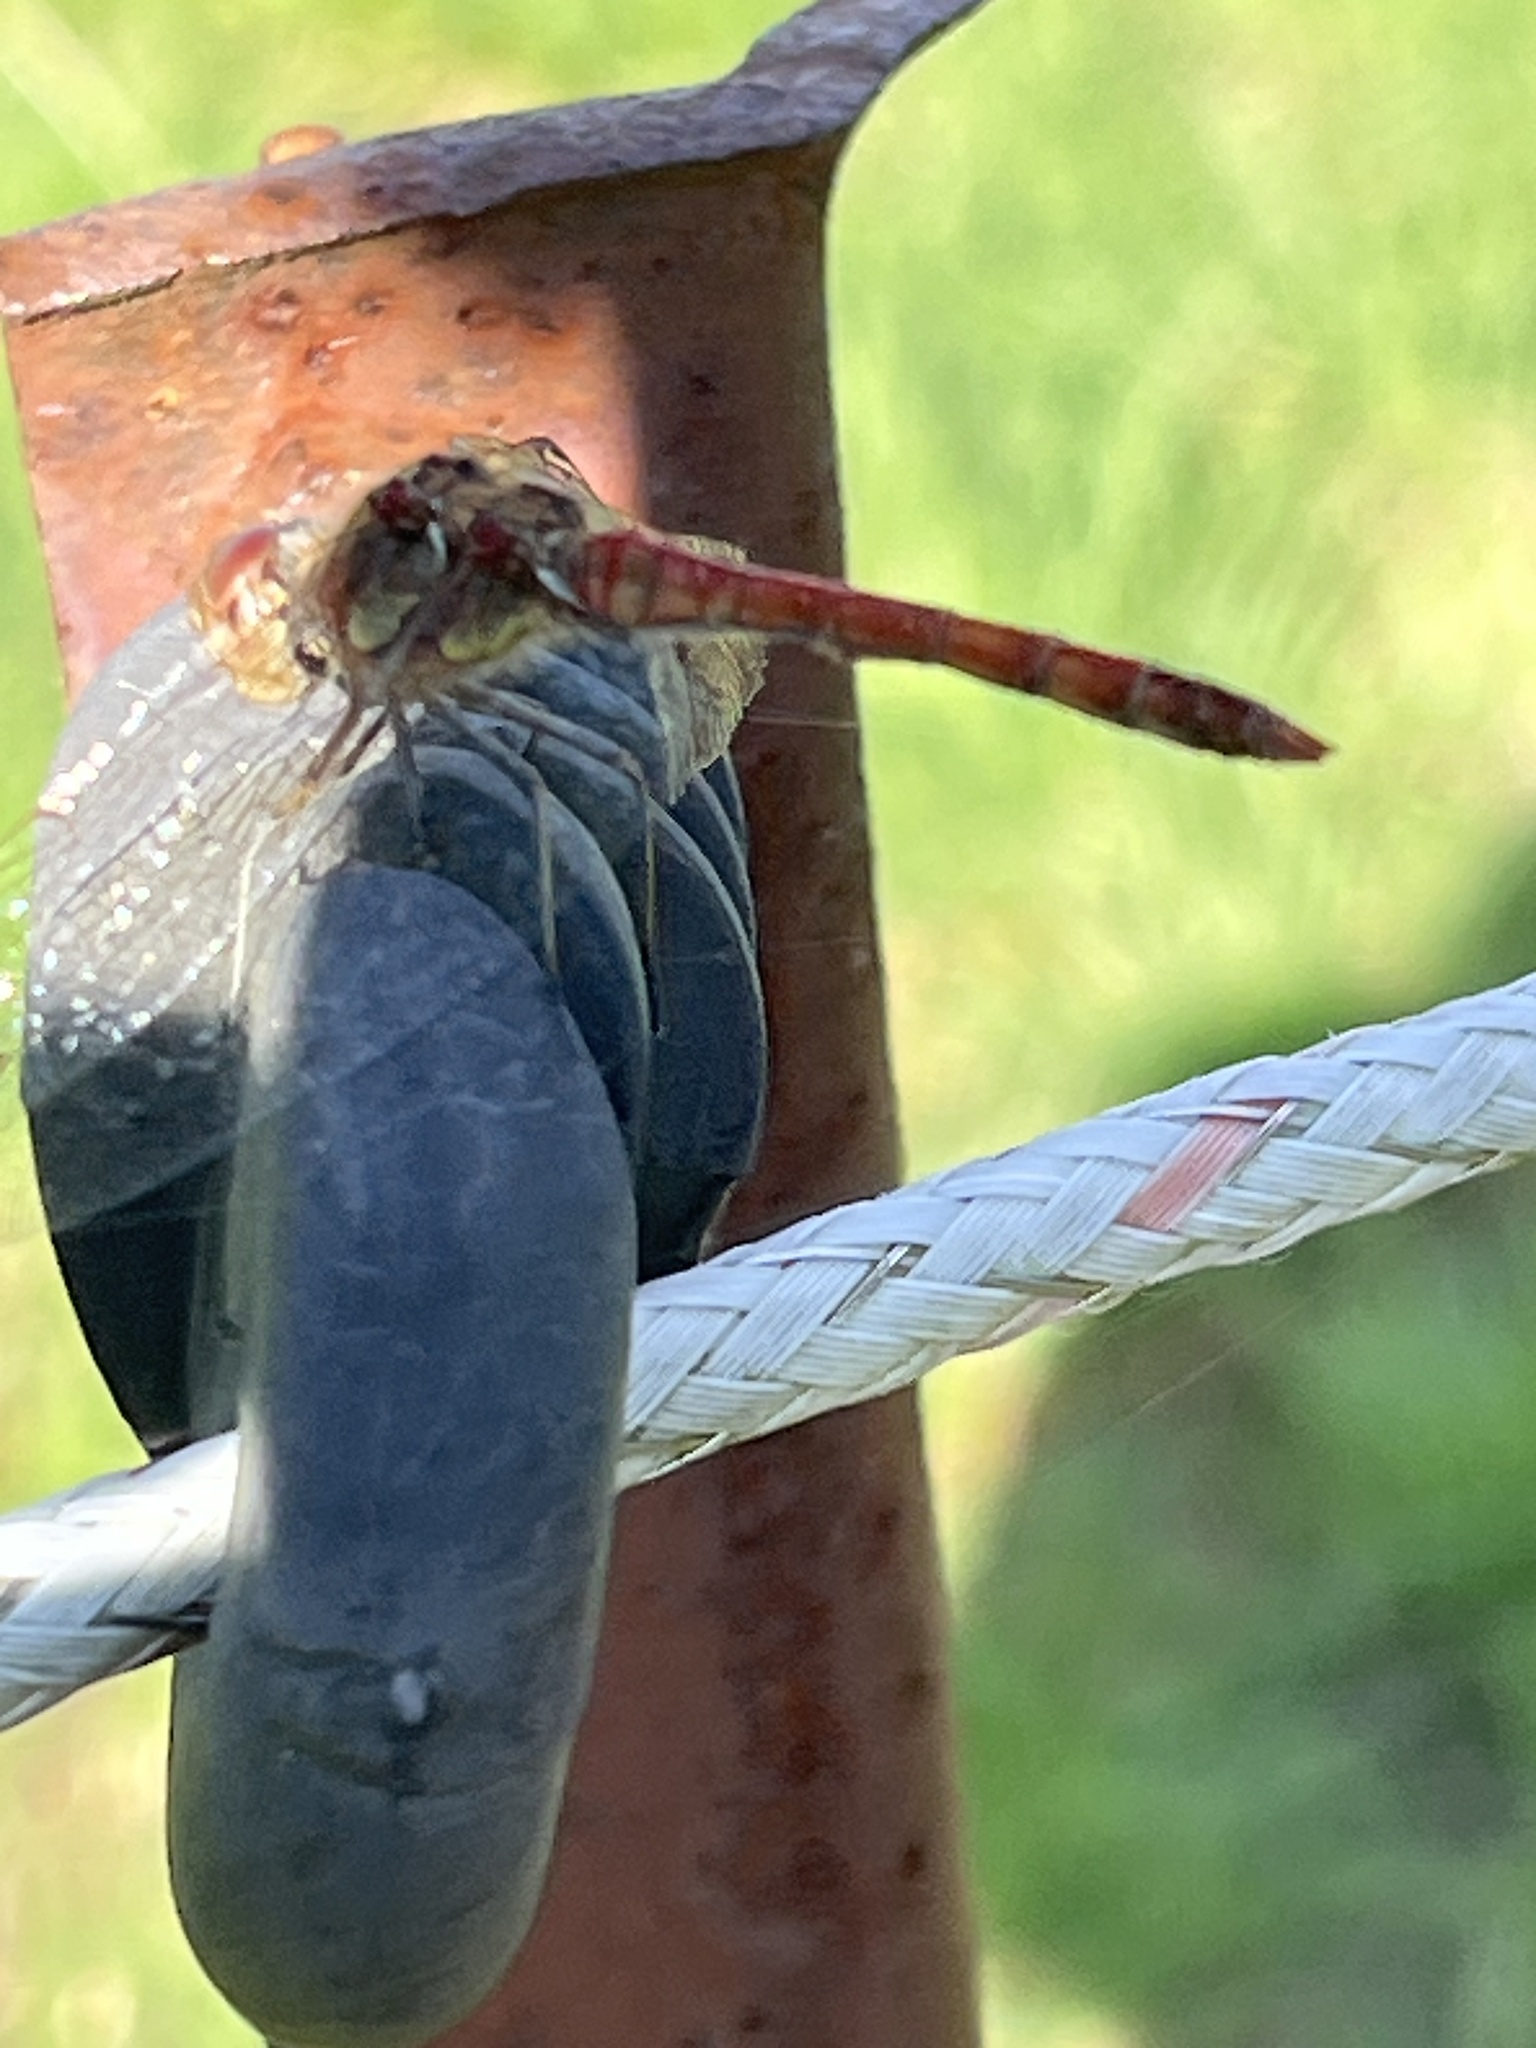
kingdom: Animalia
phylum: Arthropoda
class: Insecta
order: Odonata
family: Libellulidae
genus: Sympetrum
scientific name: Sympetrum striolatum
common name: Common darter
